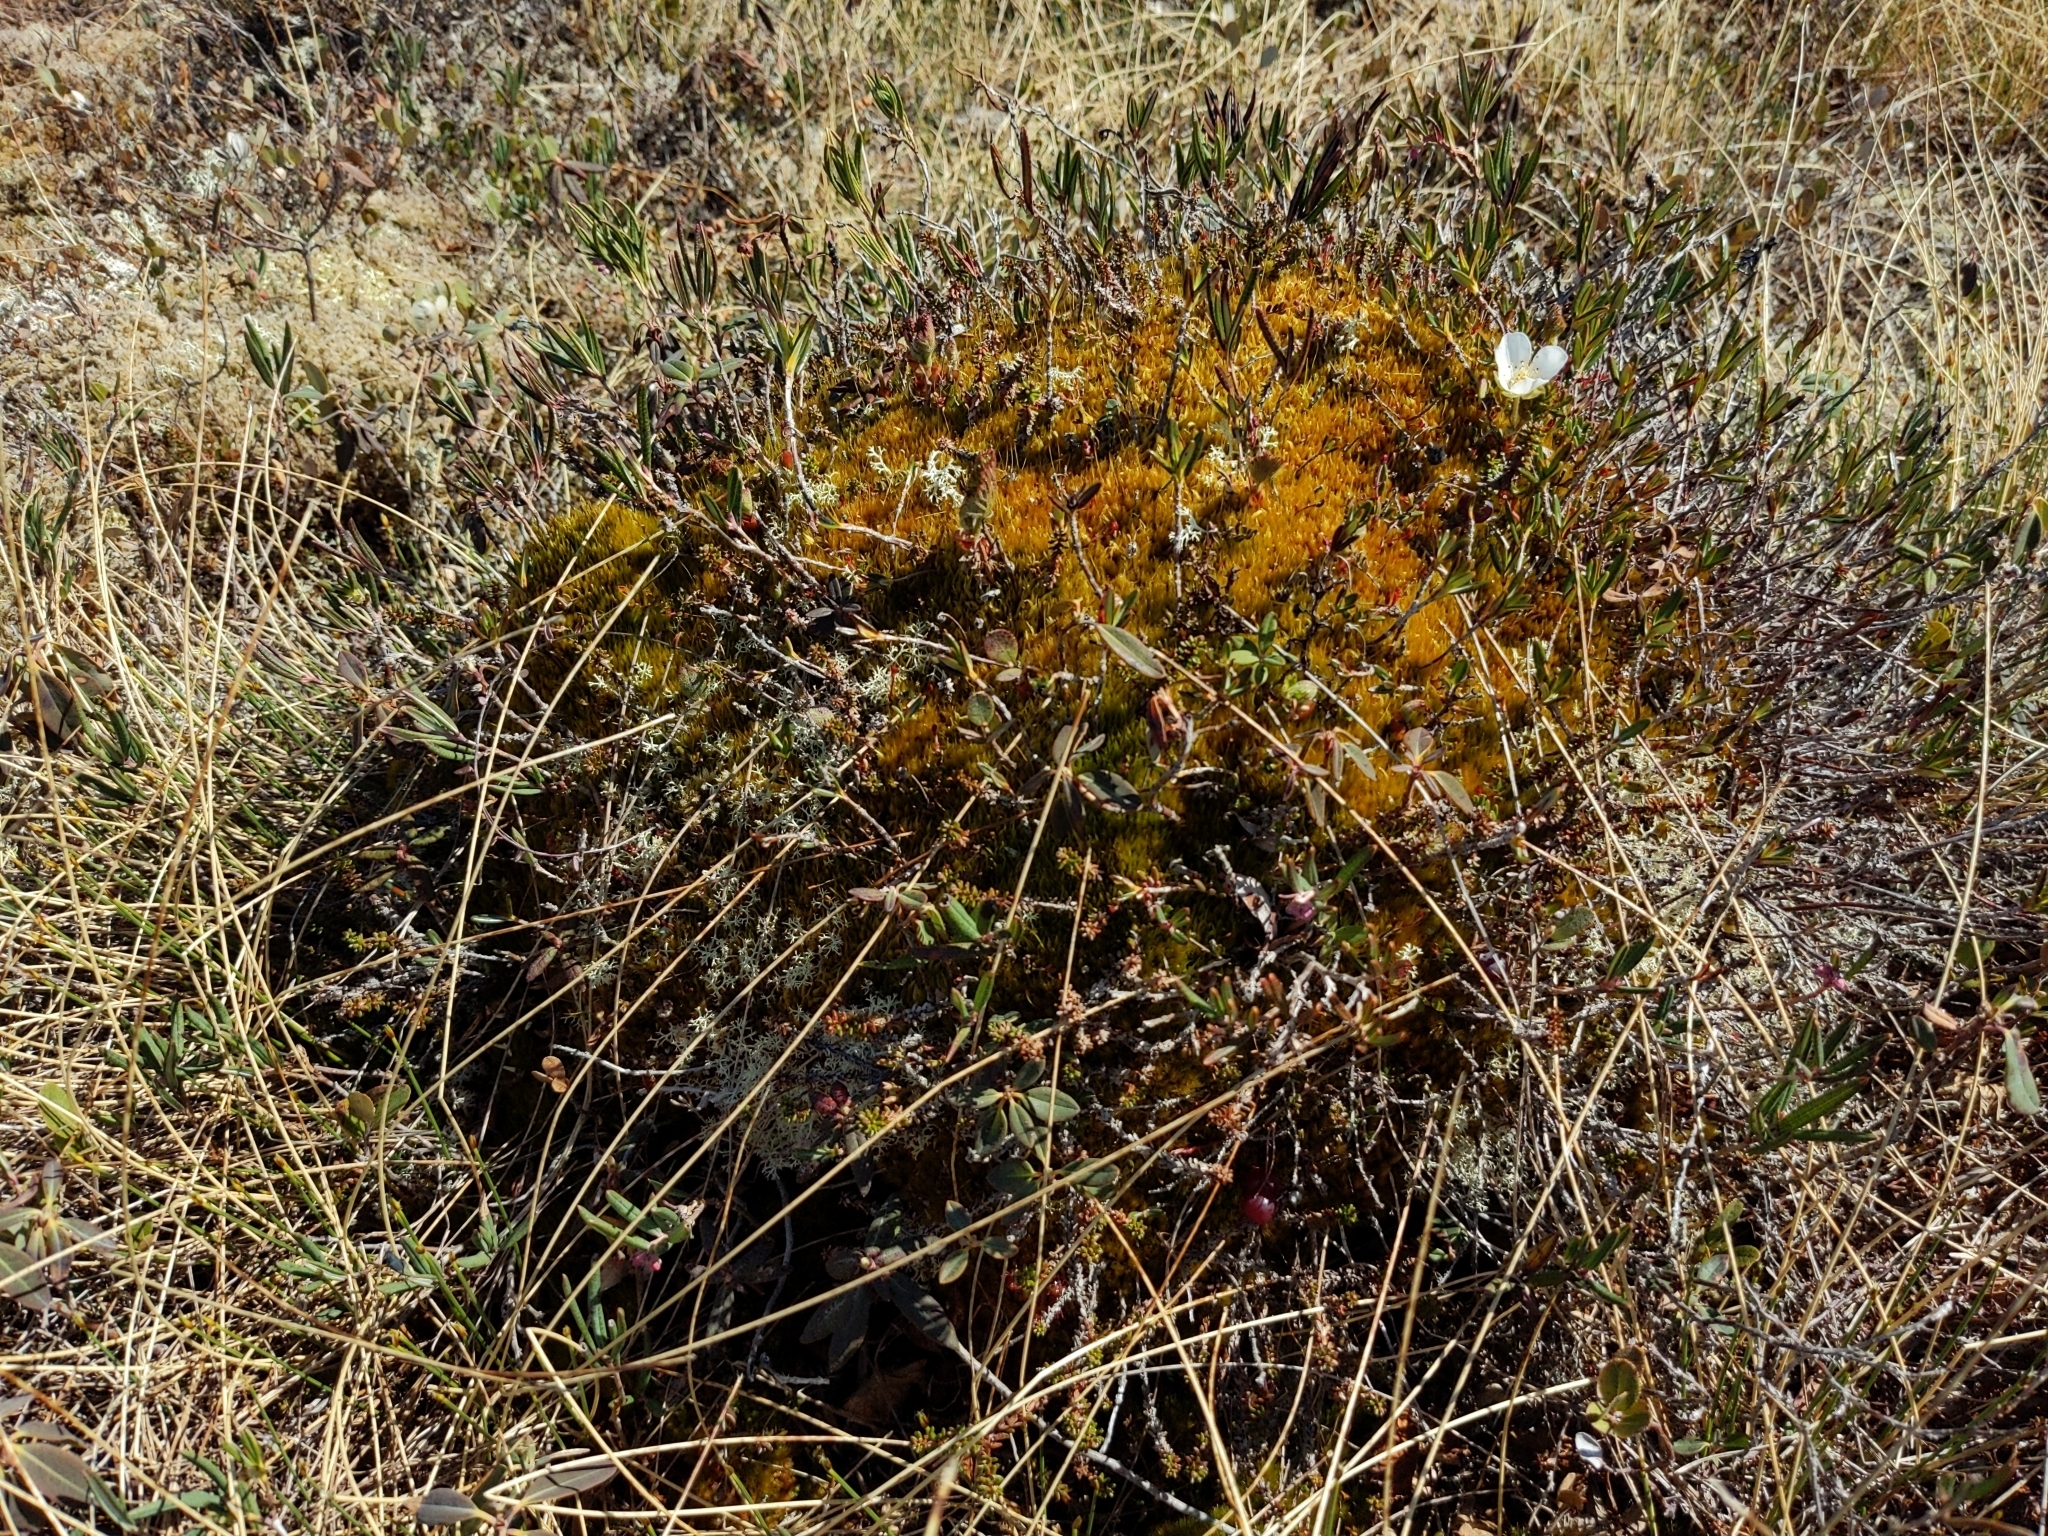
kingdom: Plantae
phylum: Tracheophyta
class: Magnoliopsida
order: Rosales
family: Rosaceae
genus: Rubus
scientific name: Rubus chamaemorus
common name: Cloudberry
